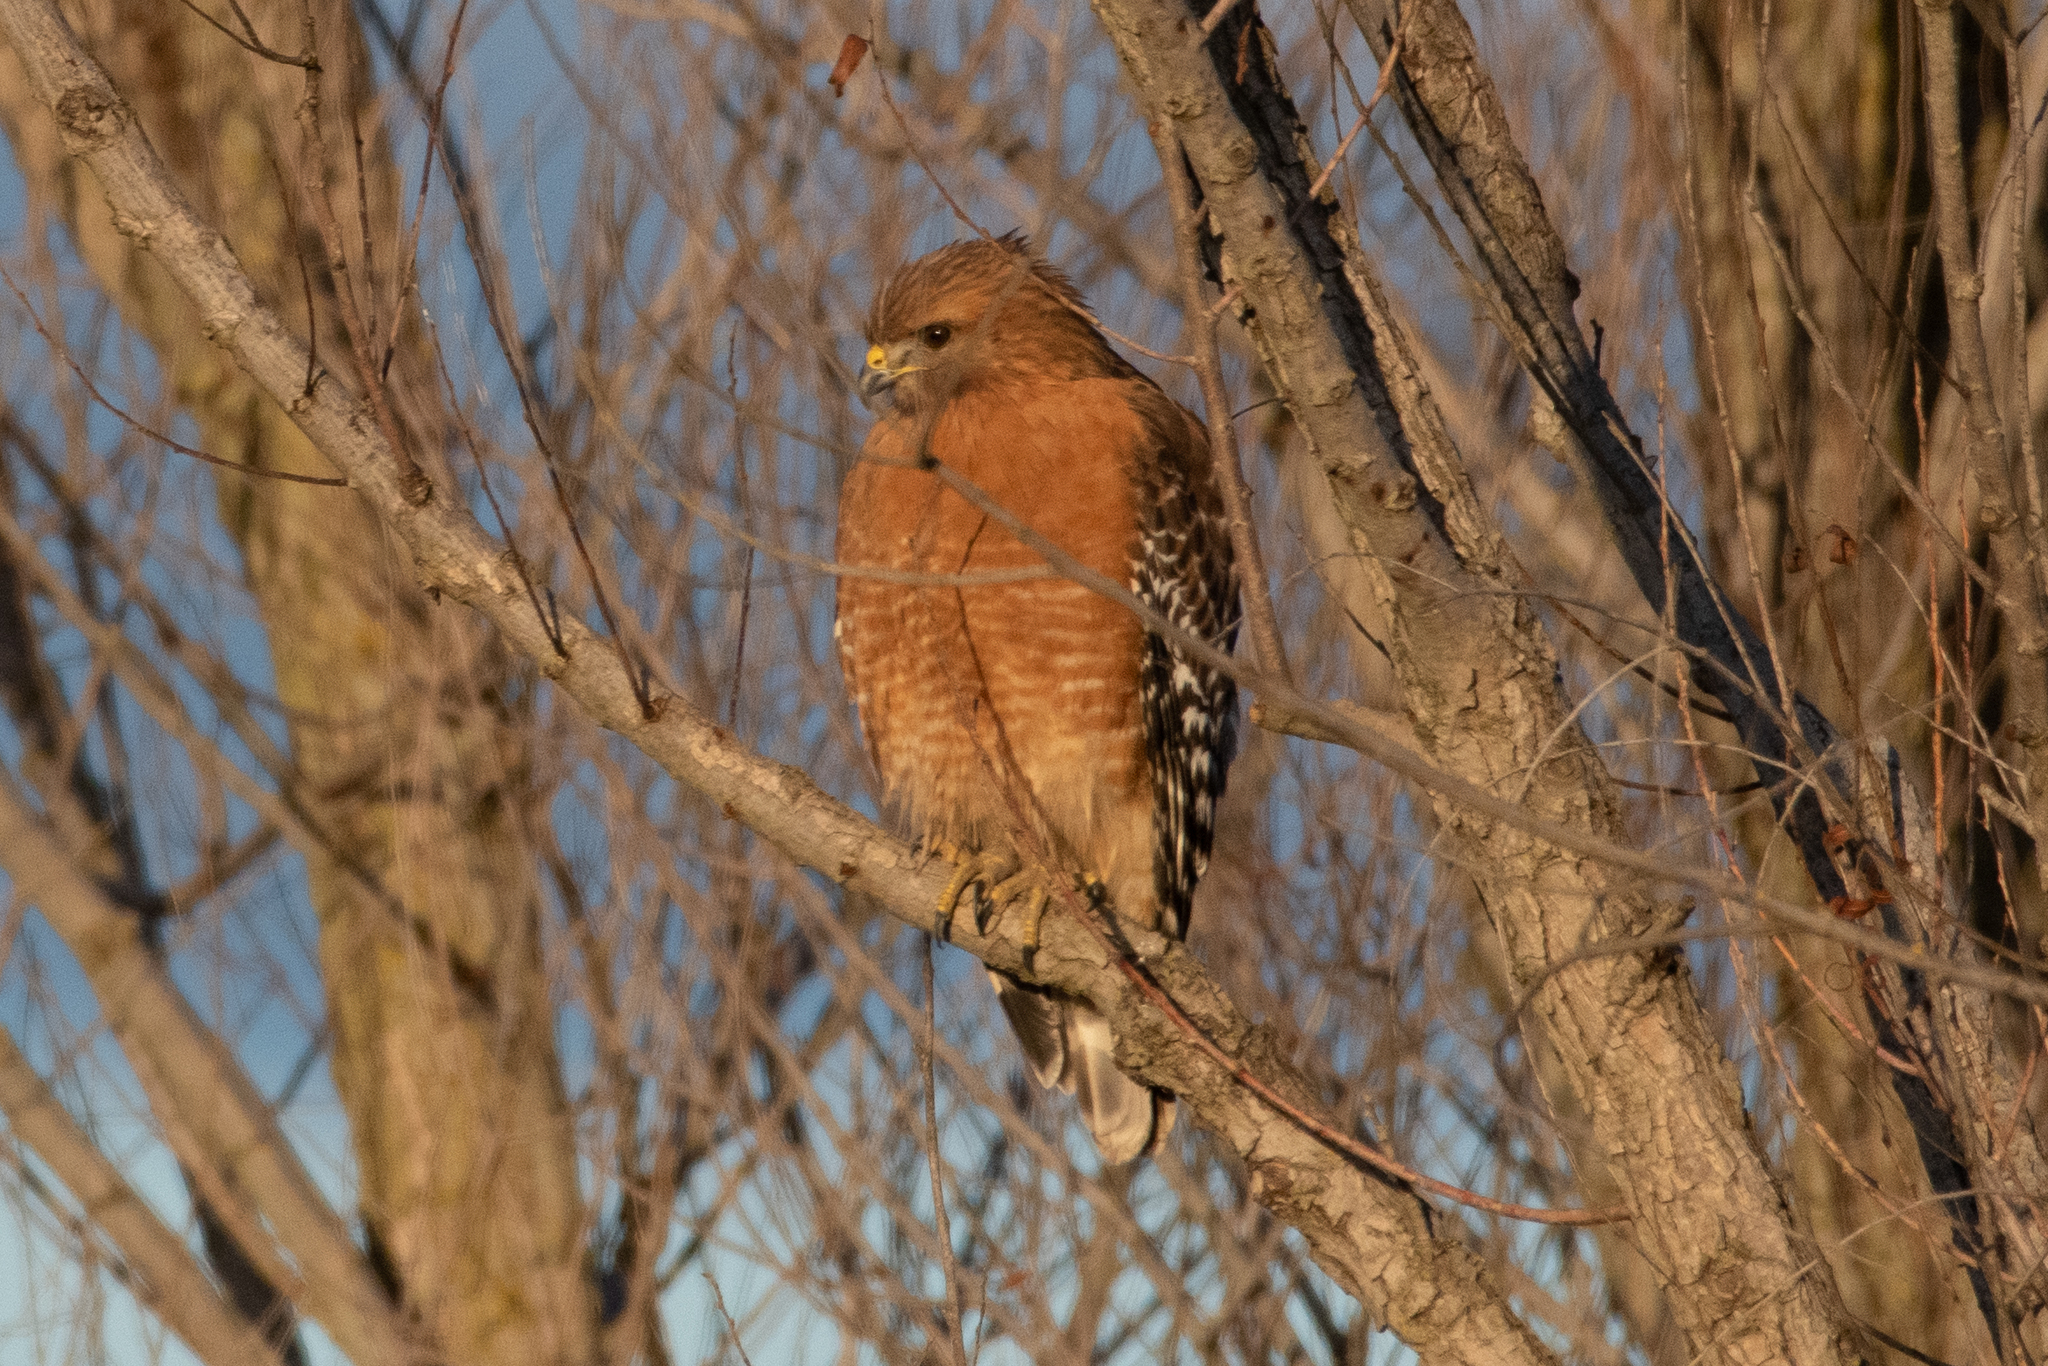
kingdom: Animalia
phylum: Chordata
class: Aves
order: Accipitriformes
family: Accipitridae
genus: Buteo
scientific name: Buteo lineatus
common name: Red-shouldered hawk
